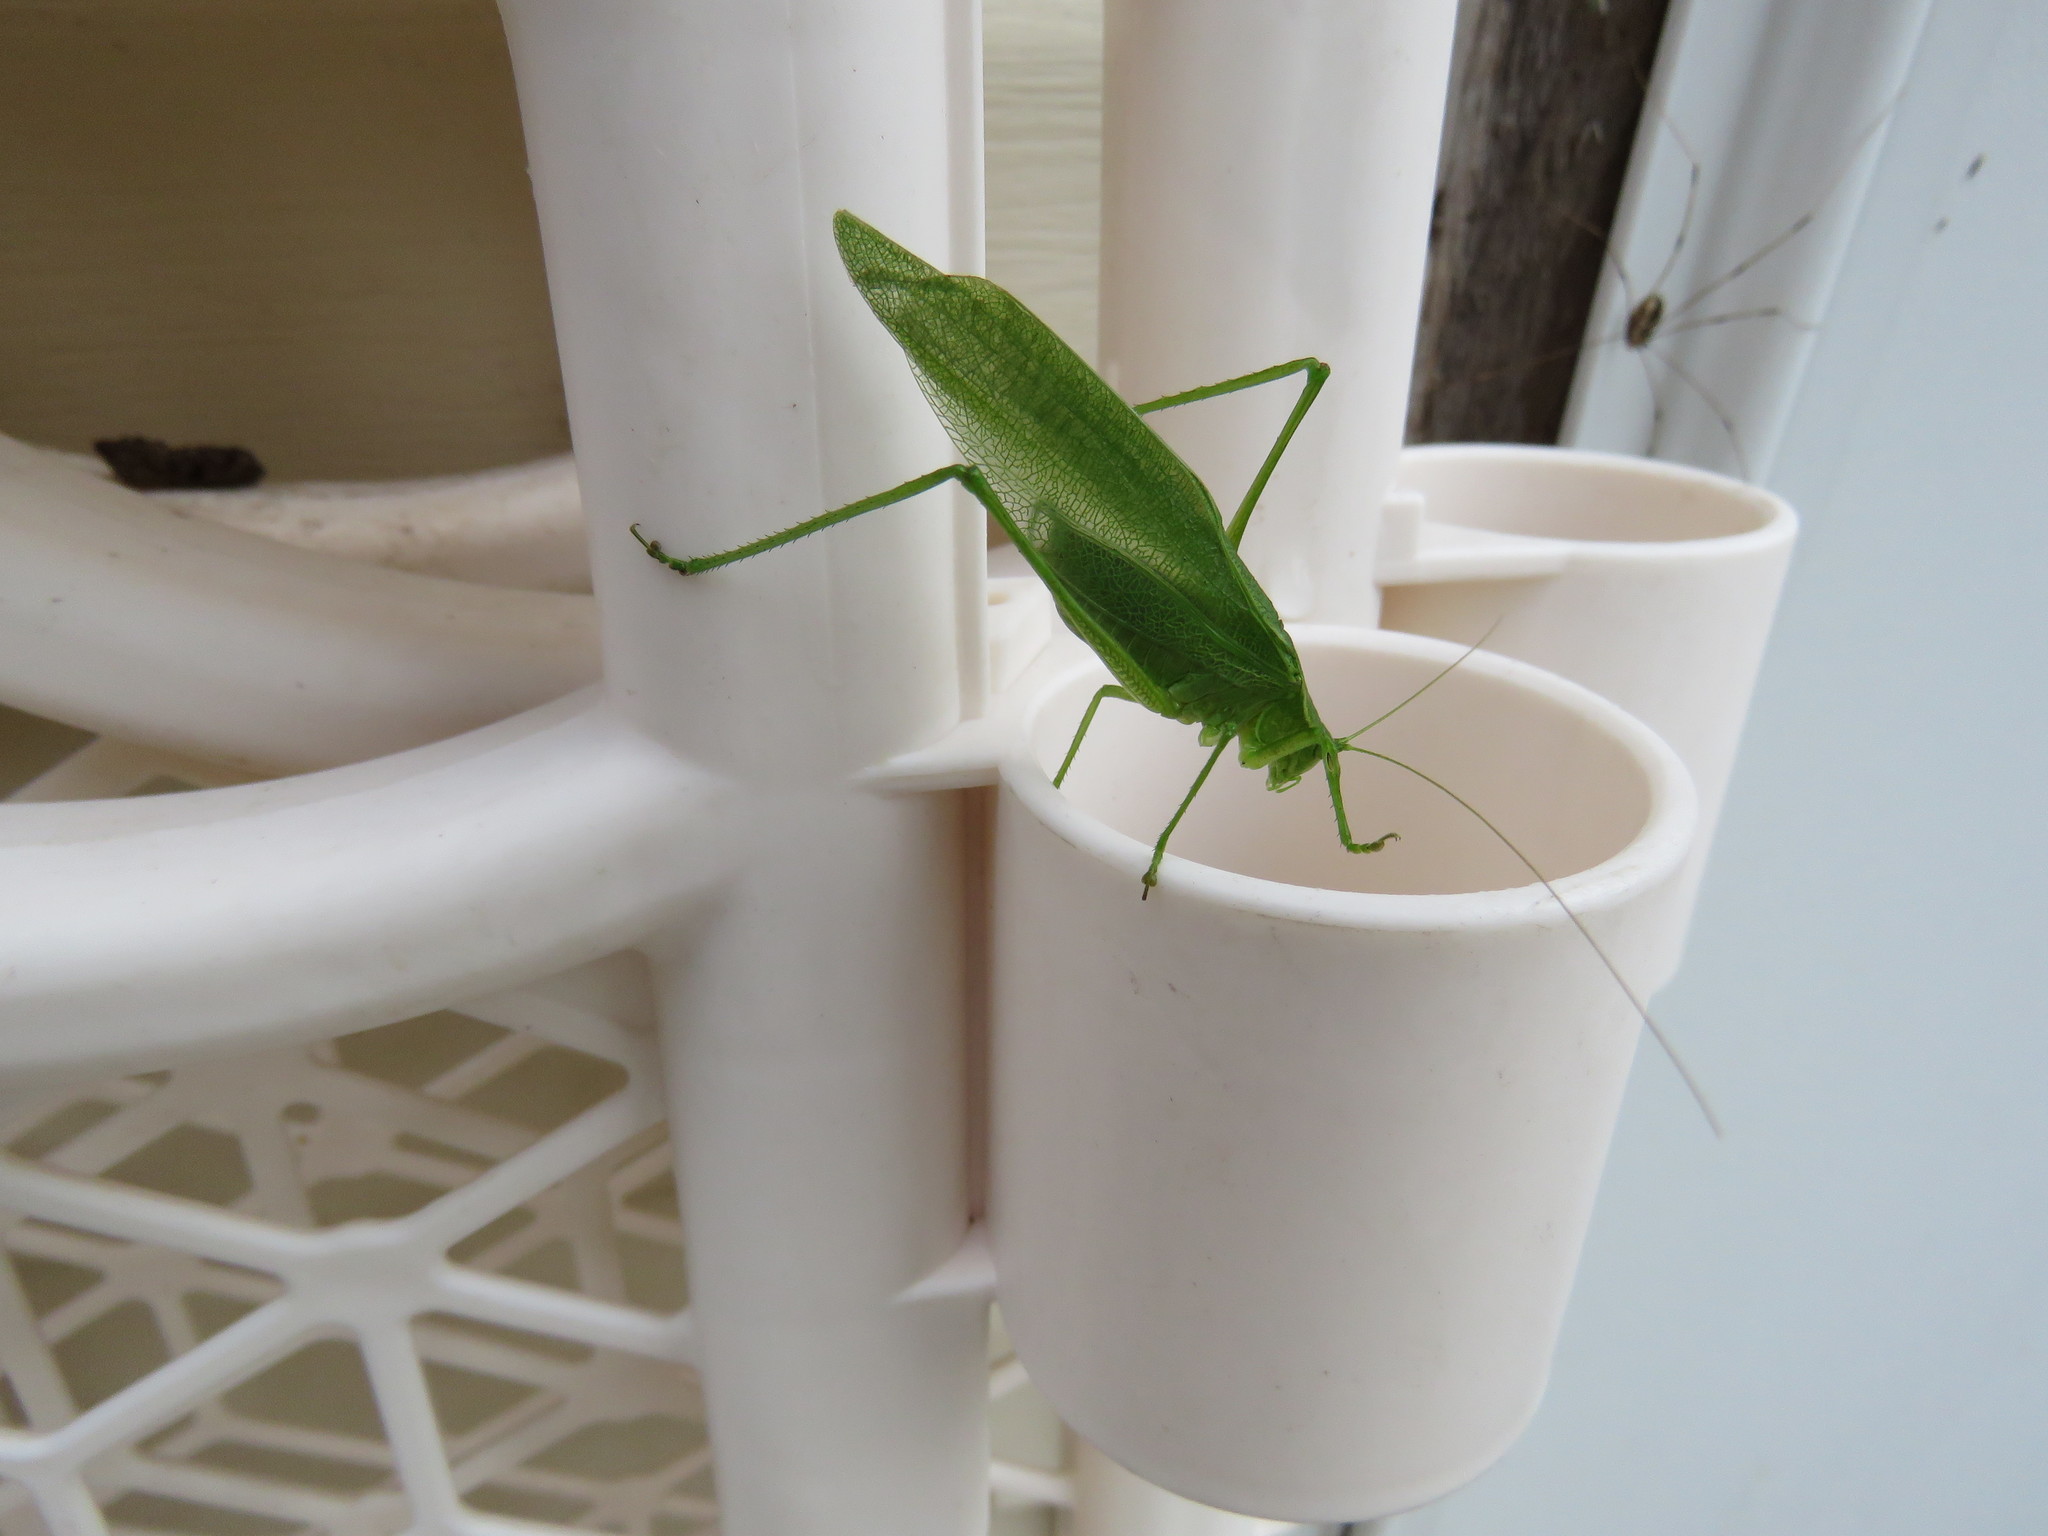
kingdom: Animalia
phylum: Arthropoda
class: Insecta
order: Orthoptera
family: Tettigoniidae
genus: Scudderia
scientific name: Scudderia pistillata
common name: Broad-winged bush-katydid
